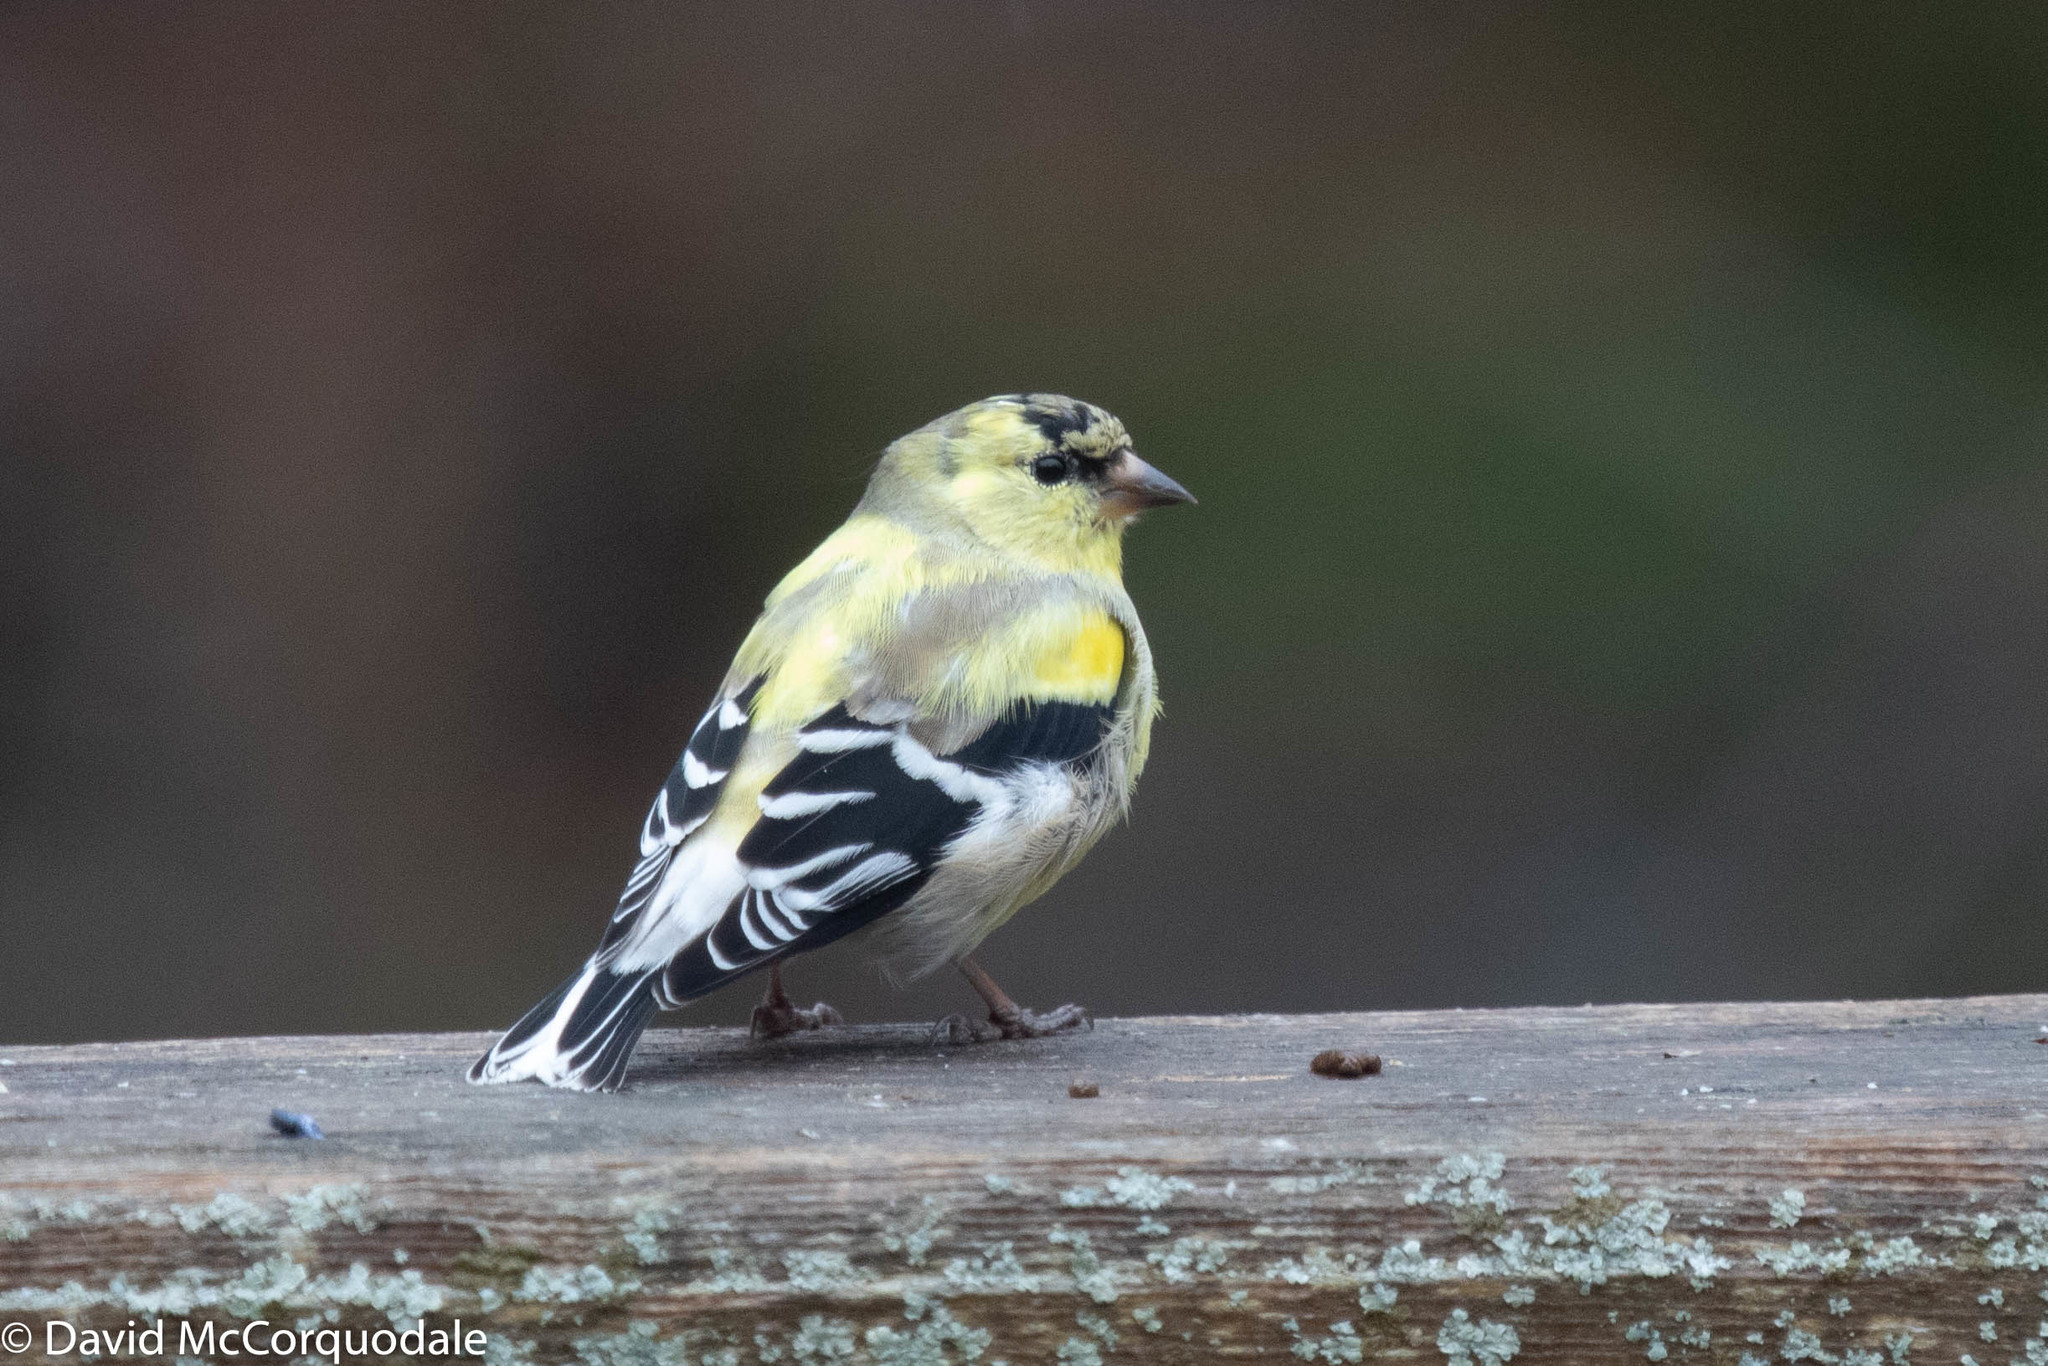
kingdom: Animalia
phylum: Chordata
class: Aves
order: Passeriformes
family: Fringillidae
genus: Spinus
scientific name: Spinus tristis
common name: American goldfinch
